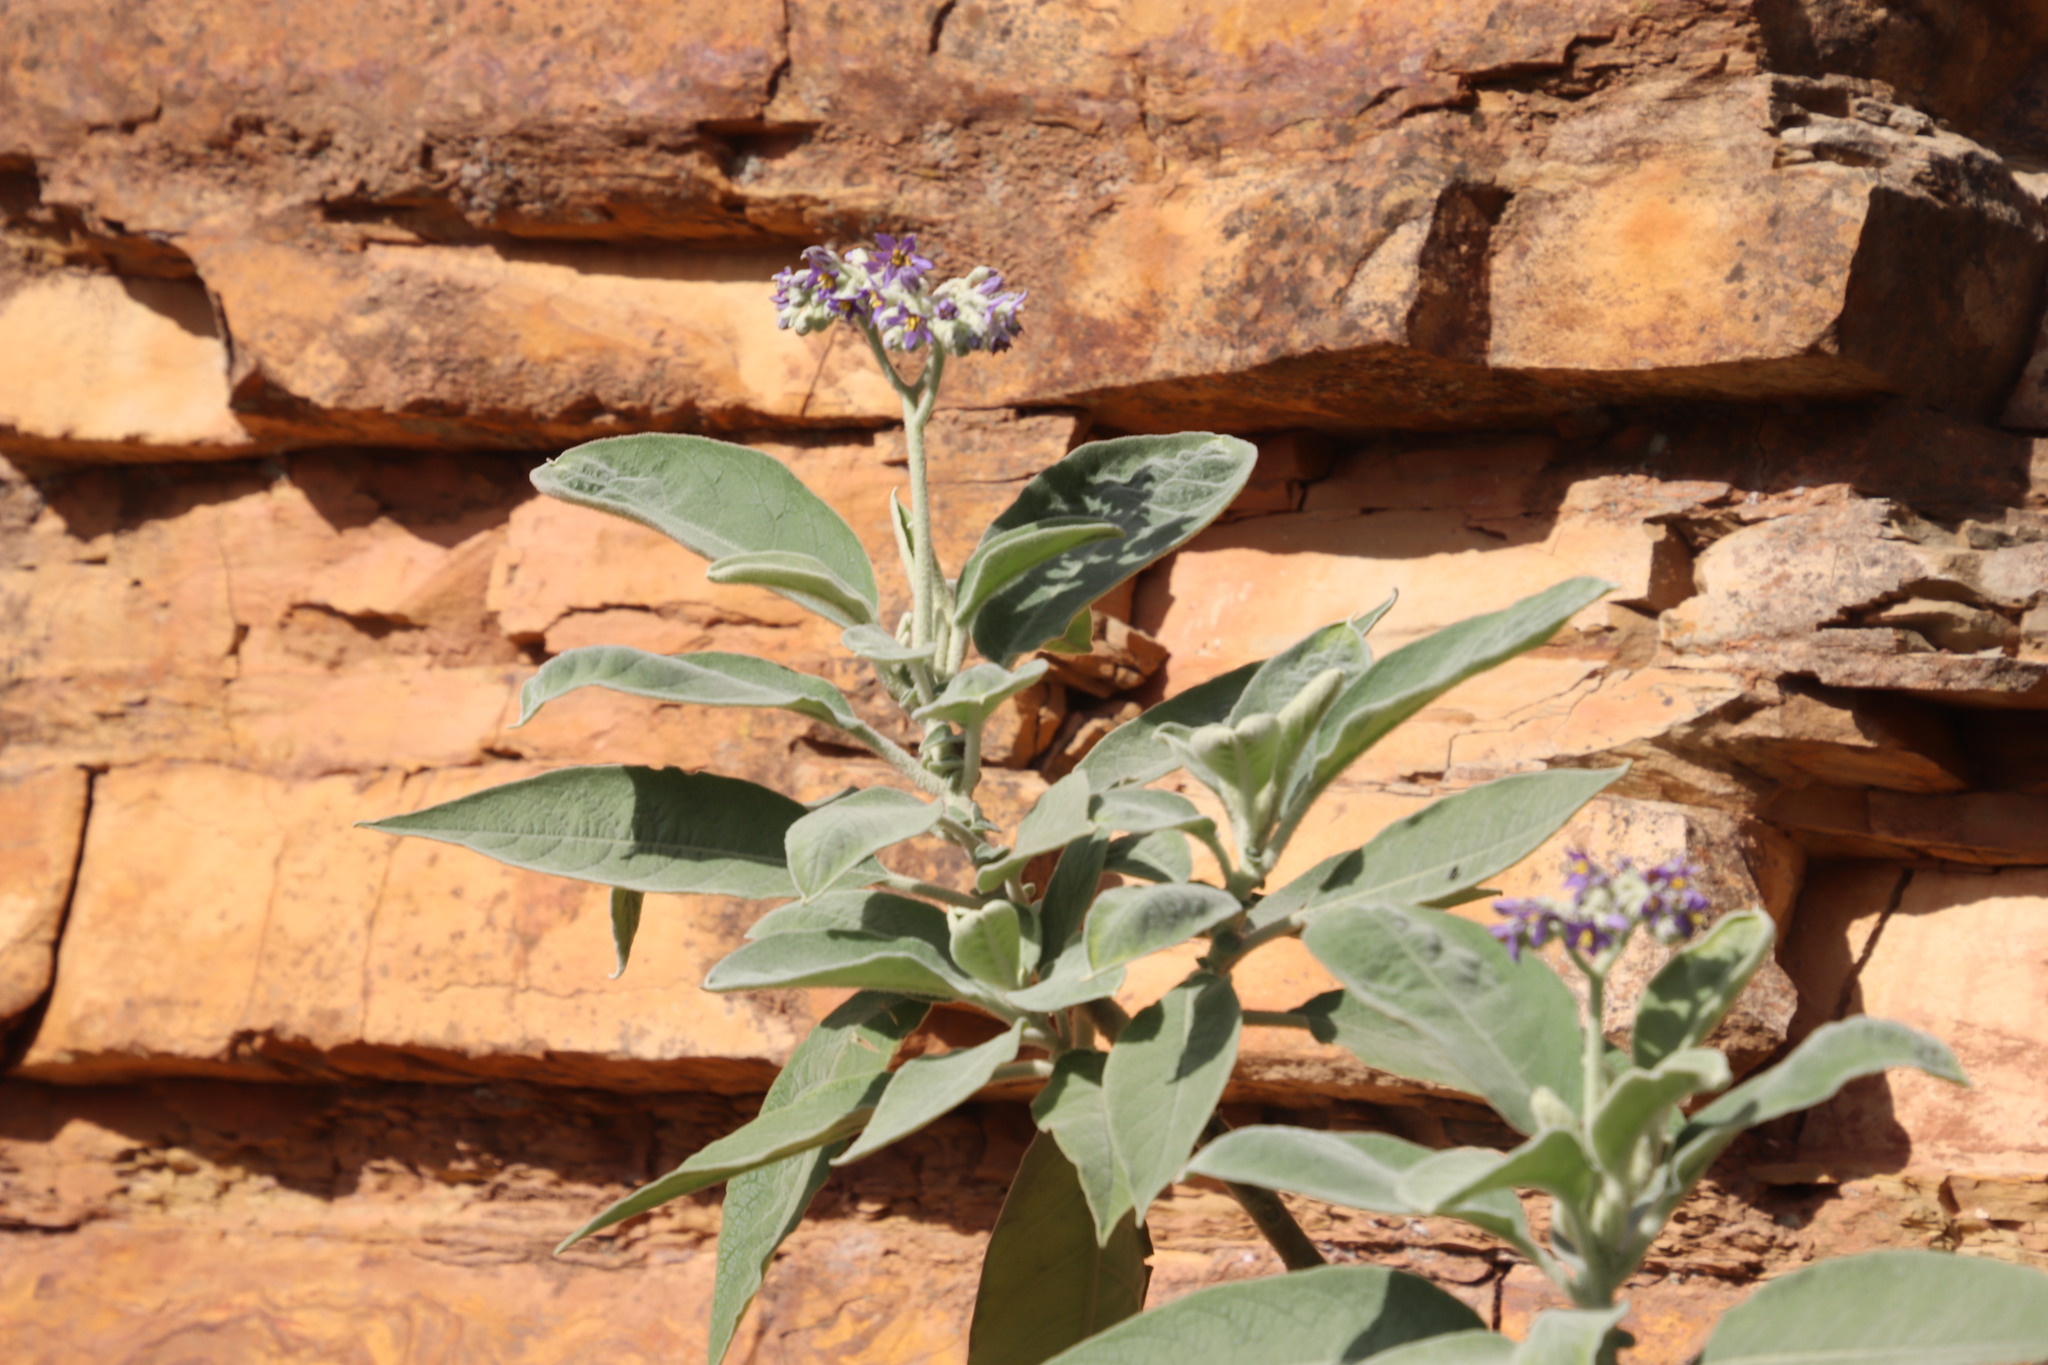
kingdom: Plantae
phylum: Tracheophyta
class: Magnoliopsida
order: Solanales
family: Solanaceae
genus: Solanum
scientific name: Solanum mauritianum
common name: Earleaf nightshade
